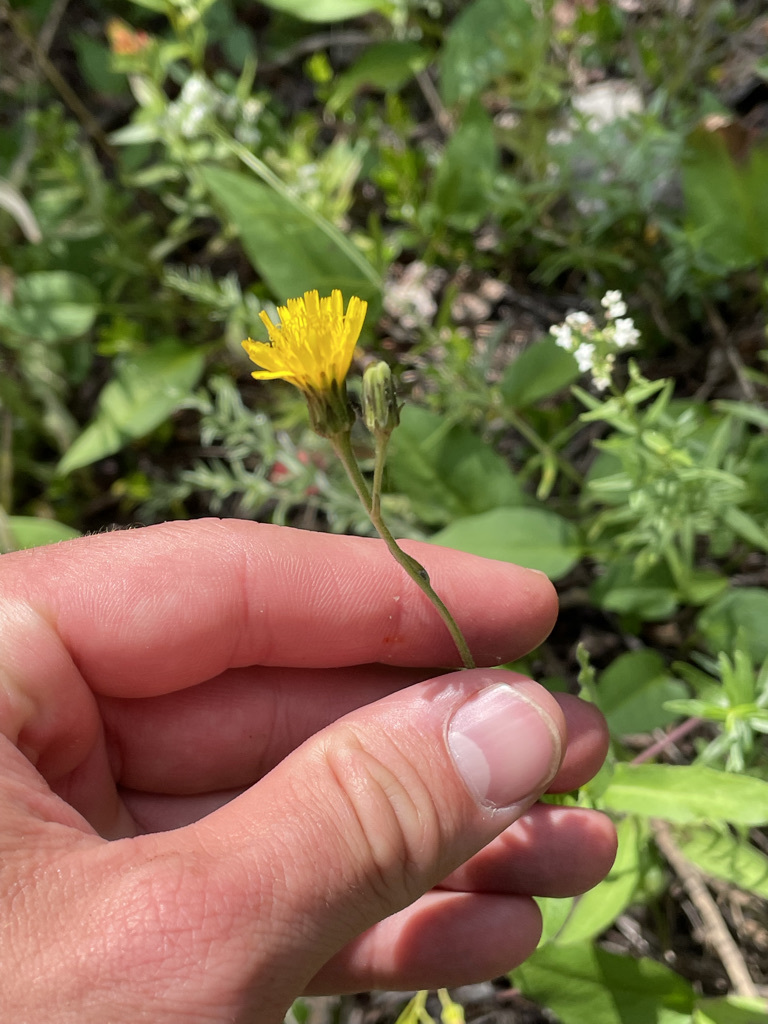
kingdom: Plantae
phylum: Tracheophyta
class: Magnoliopsida
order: Asterales
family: Asteraceae
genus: Hieracium
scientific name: Hieracium umbellatum
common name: Northern hawkweed
